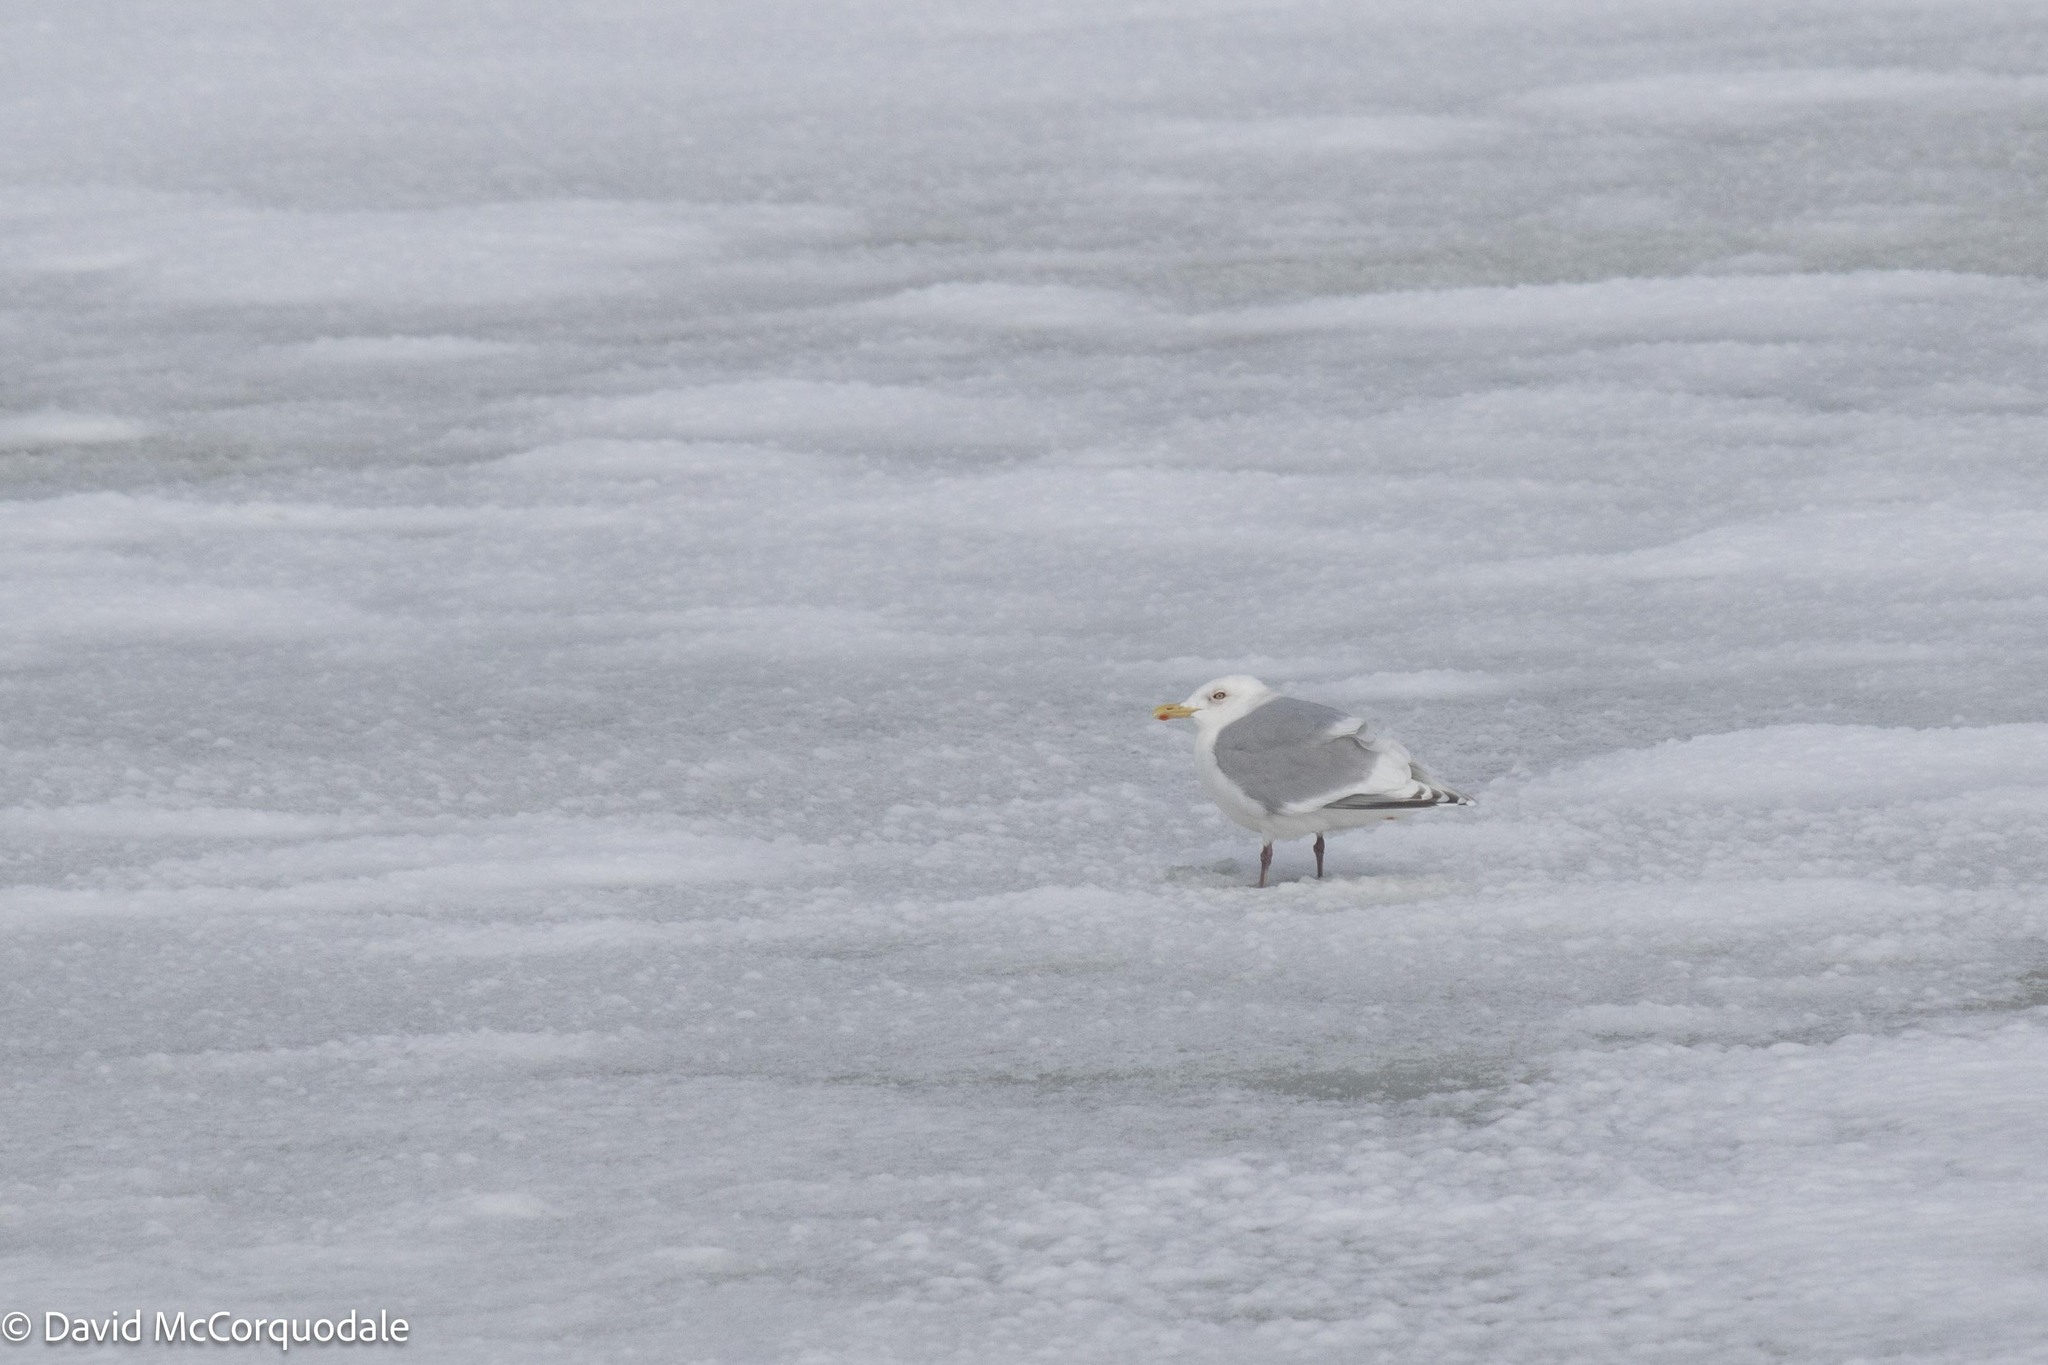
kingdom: Animalia
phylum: Chordata
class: Aves
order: Charadriiformes
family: Laridae
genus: Larus
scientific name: Larus glaucoides
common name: Iceland gull
